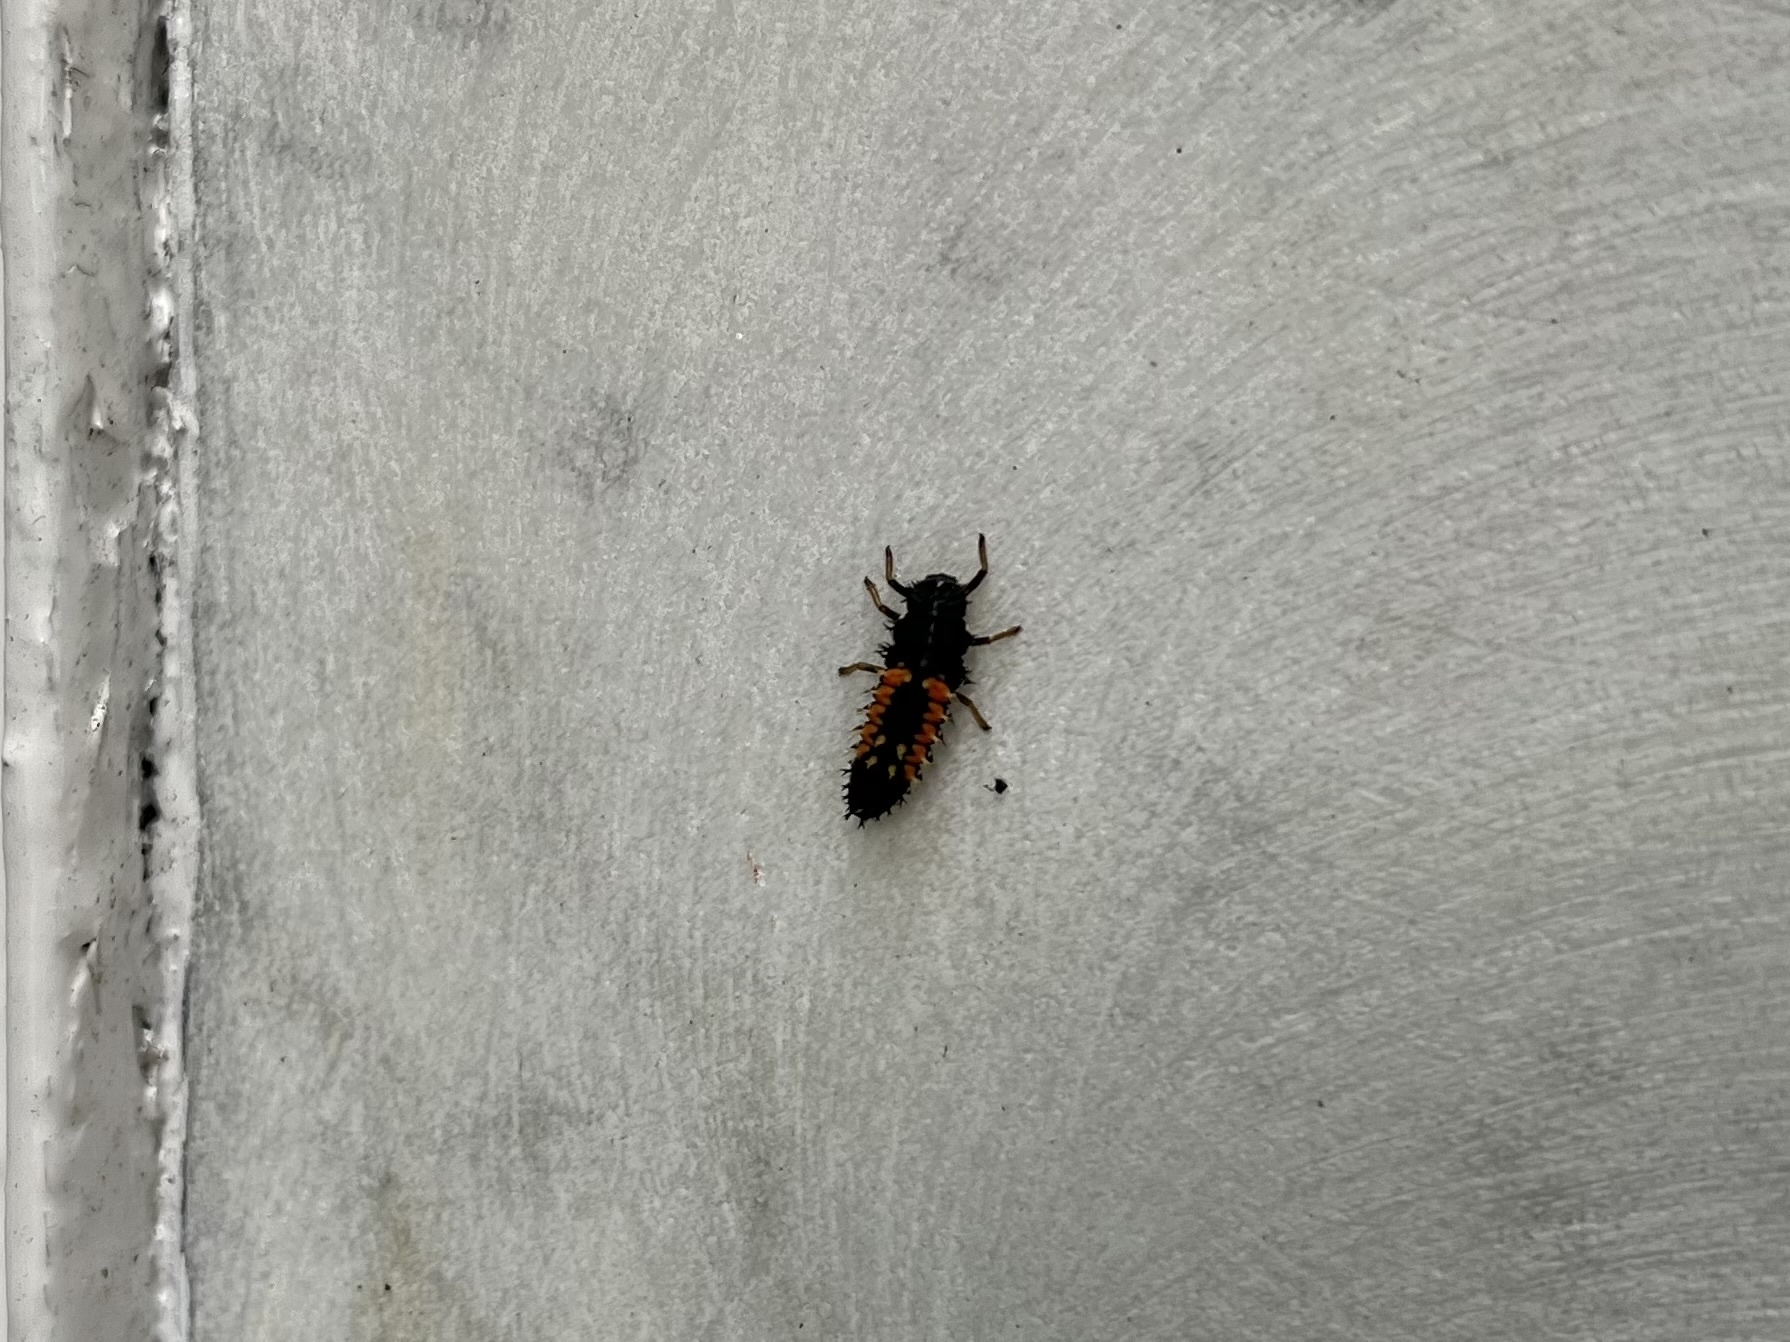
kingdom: Animalia
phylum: Arthropoda
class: Insecta
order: Coleoptera
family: Coccinellidae
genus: Harmonia
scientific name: Harmonia axyridis
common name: Harlequin ladybird
